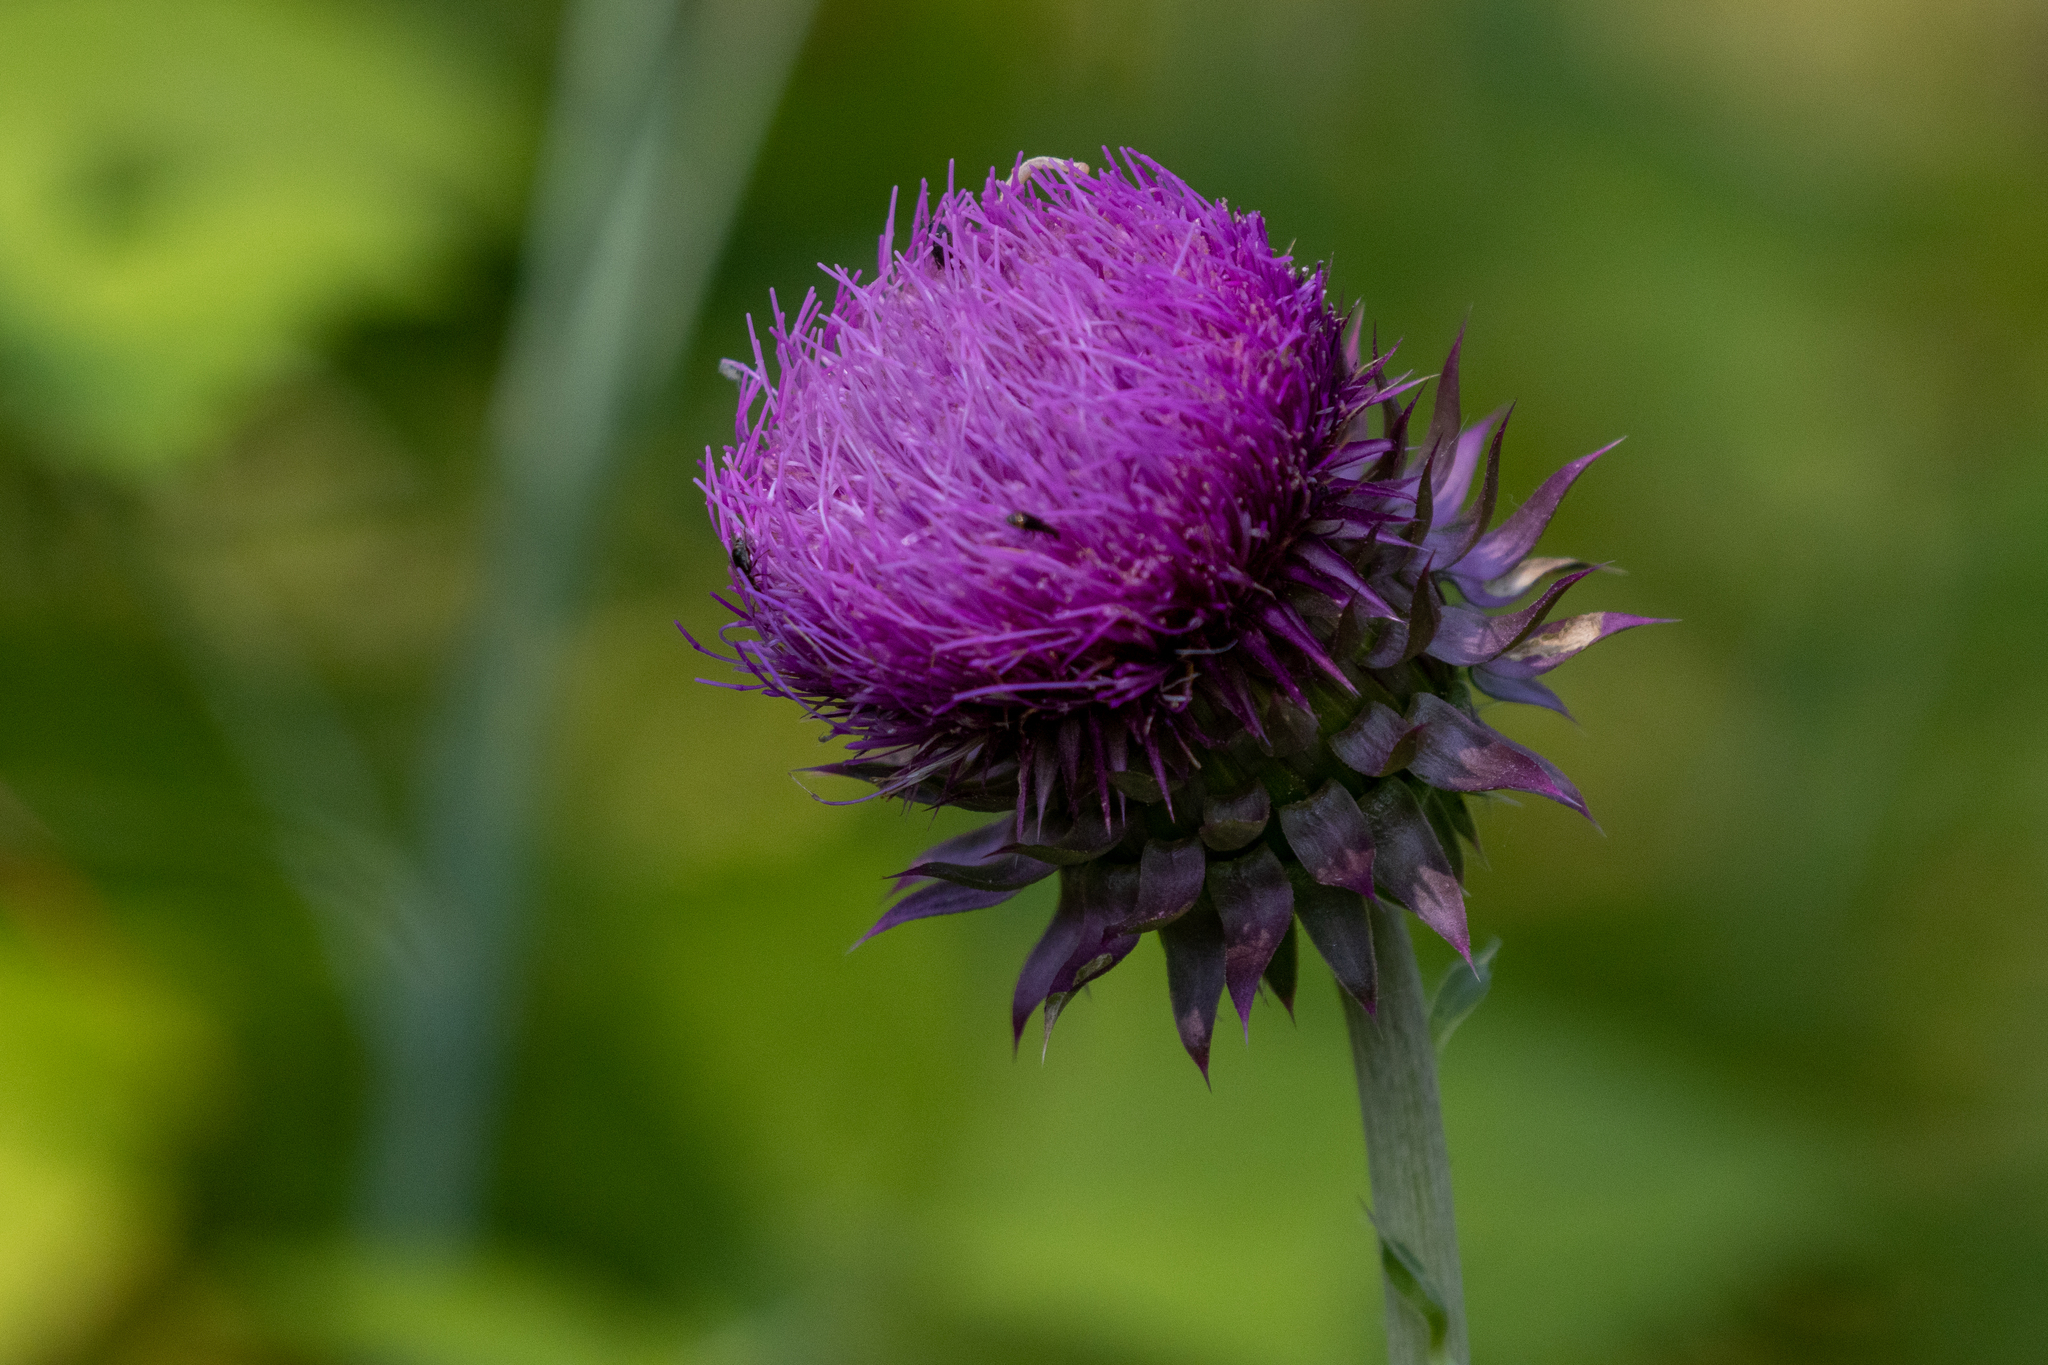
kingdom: Plantae
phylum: Tracheophyta
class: Magnoliopsida
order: Asterales
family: Asteraceae
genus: Carduus
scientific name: Carduus nutans
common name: Musk thistle
